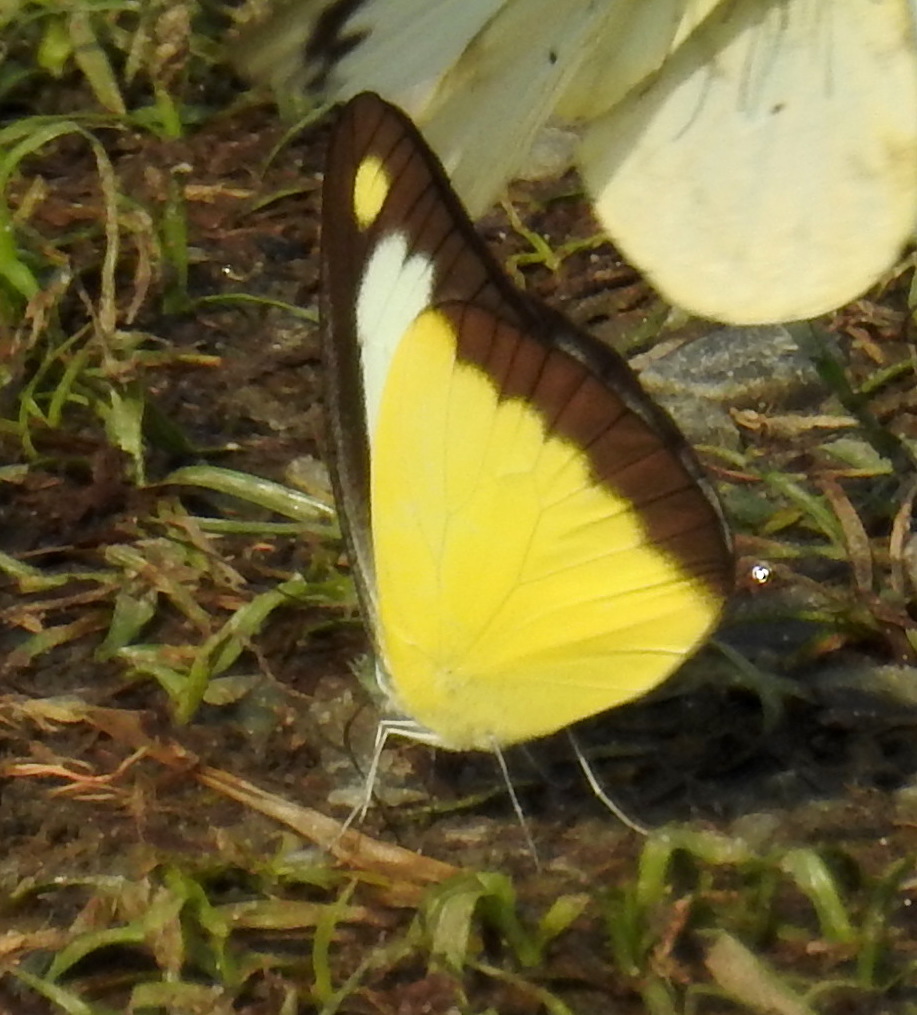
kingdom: Animalia
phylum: Arthropoda
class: Insecta
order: Lepidoptera
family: Pieridae
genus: Appias
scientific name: Appias lyncida
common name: Chocolate albatross
